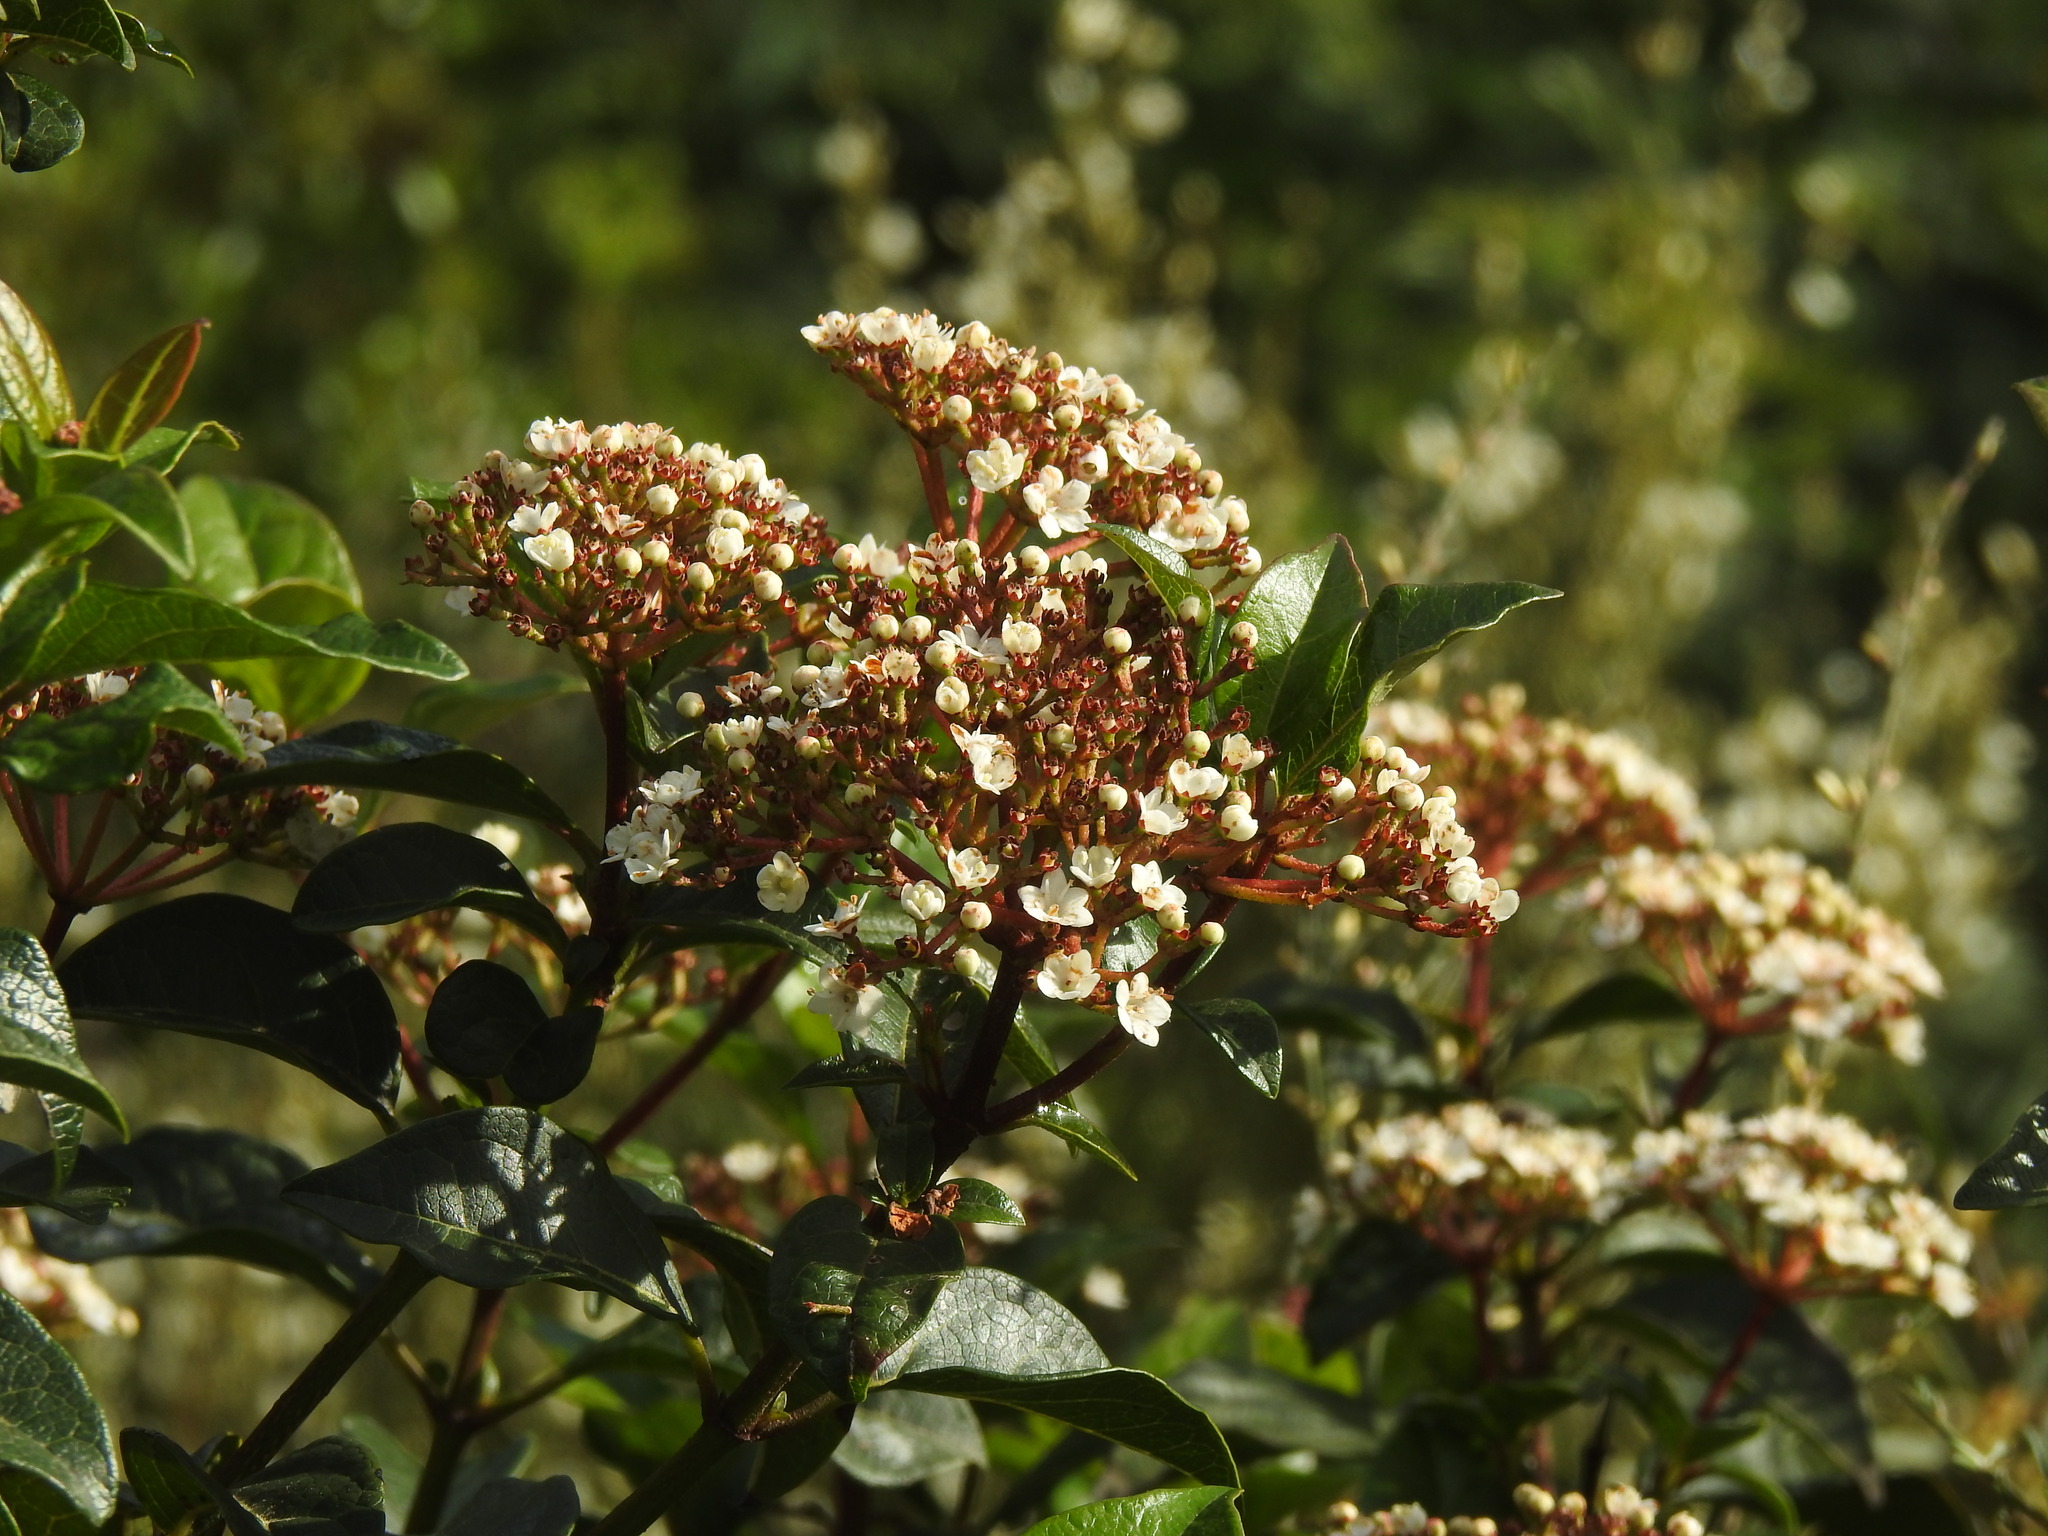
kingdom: Plantae
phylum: Tracheophyta
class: Magnoliopsida
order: Dipsacales
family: Viburnaceae
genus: Viburnum
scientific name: Viburnum tinus
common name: Laurustinus
